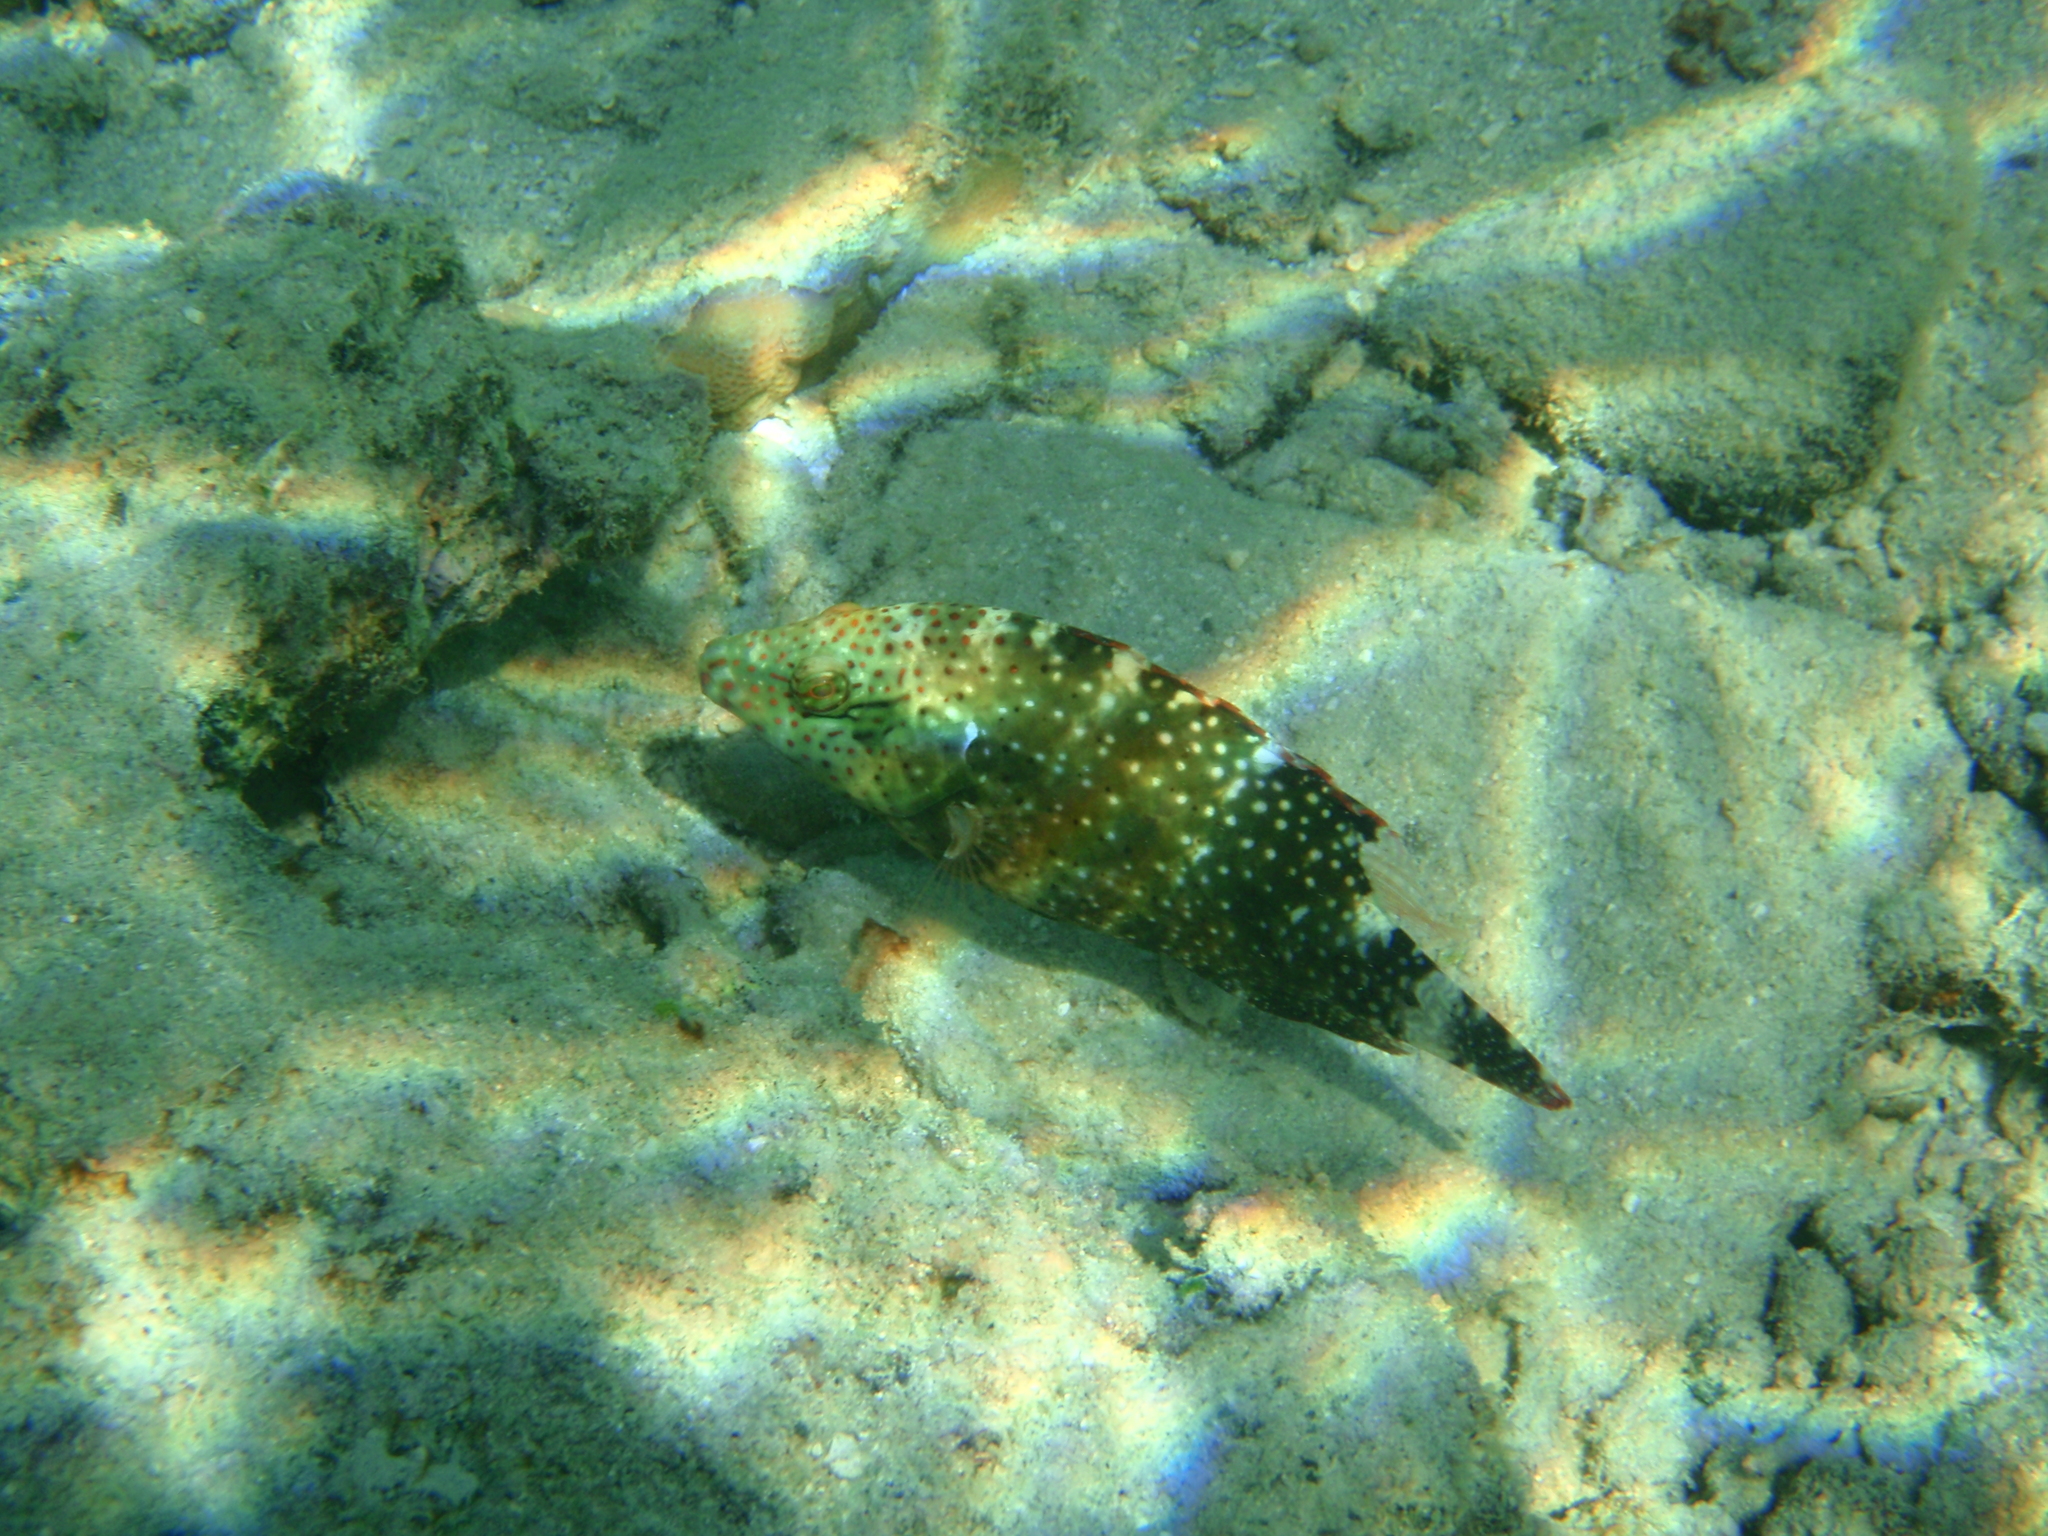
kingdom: Animalia
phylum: Chordata
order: Perciformes
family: Labridae
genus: Cheilinus
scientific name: Cheilinus chlorourus
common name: Floral wrasse
